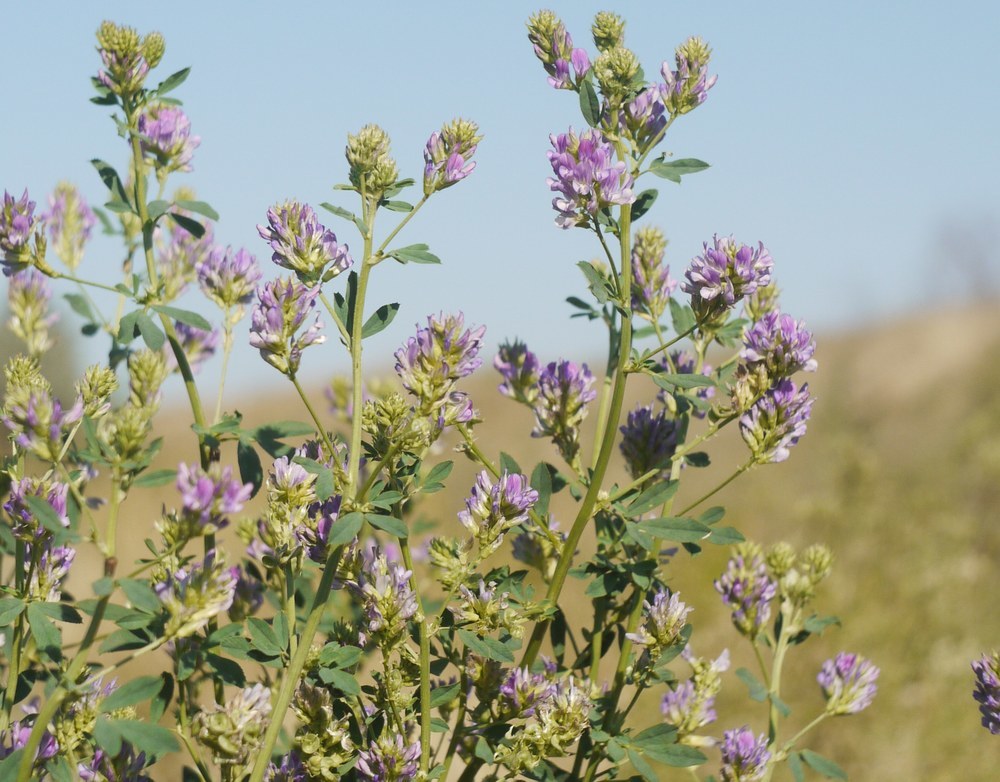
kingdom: Plantae
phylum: Tracheophyta
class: Magnoliopsida
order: Fabales
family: Fabaceae
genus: Medicago
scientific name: Medicago sativa
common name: Alfalfa
